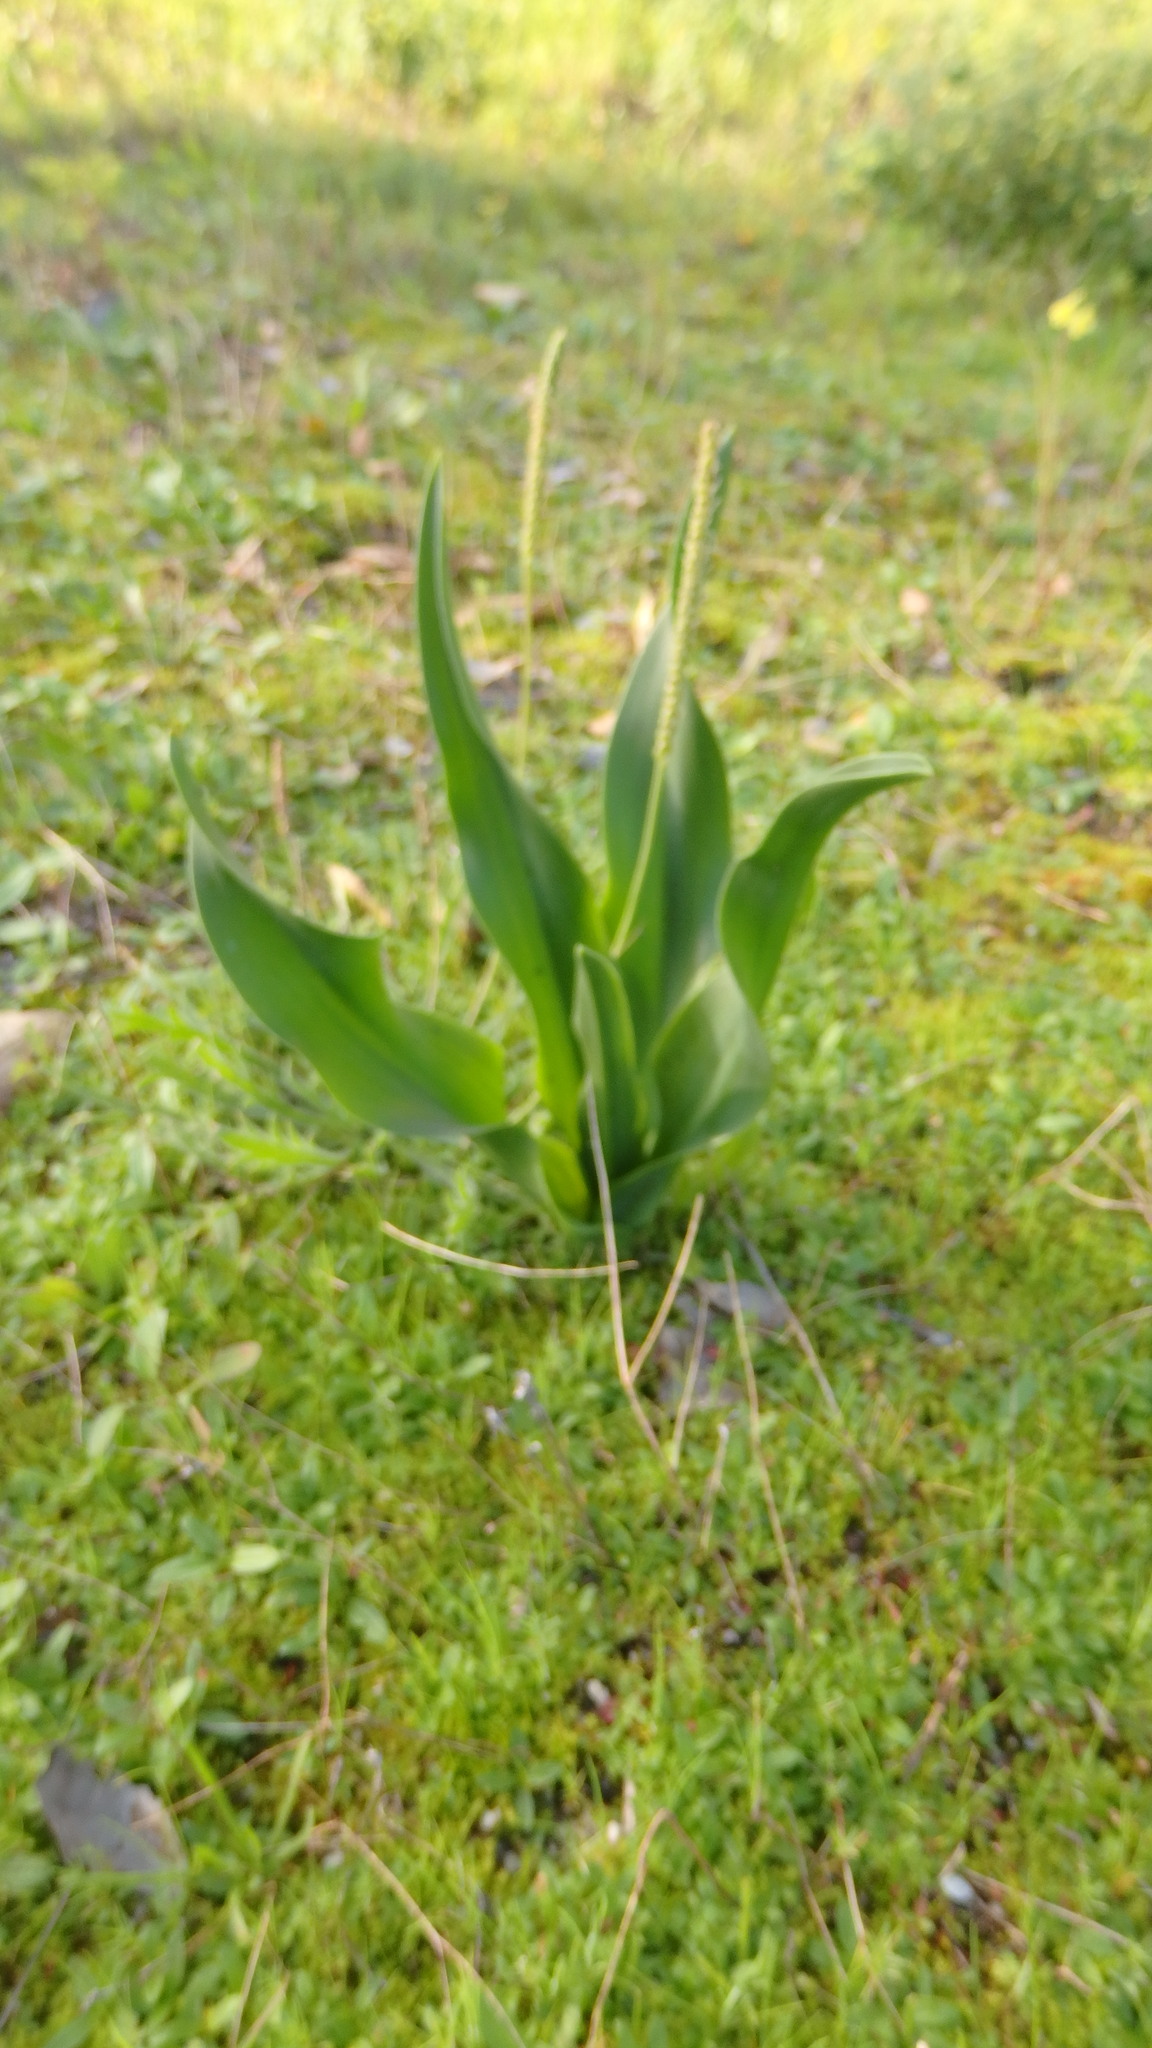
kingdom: Plantae
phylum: Tracheophyta
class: Liliopsida
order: Asparagales
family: Asparagaceae
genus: Drimia
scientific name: Drimia maritima
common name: Maritime squill
